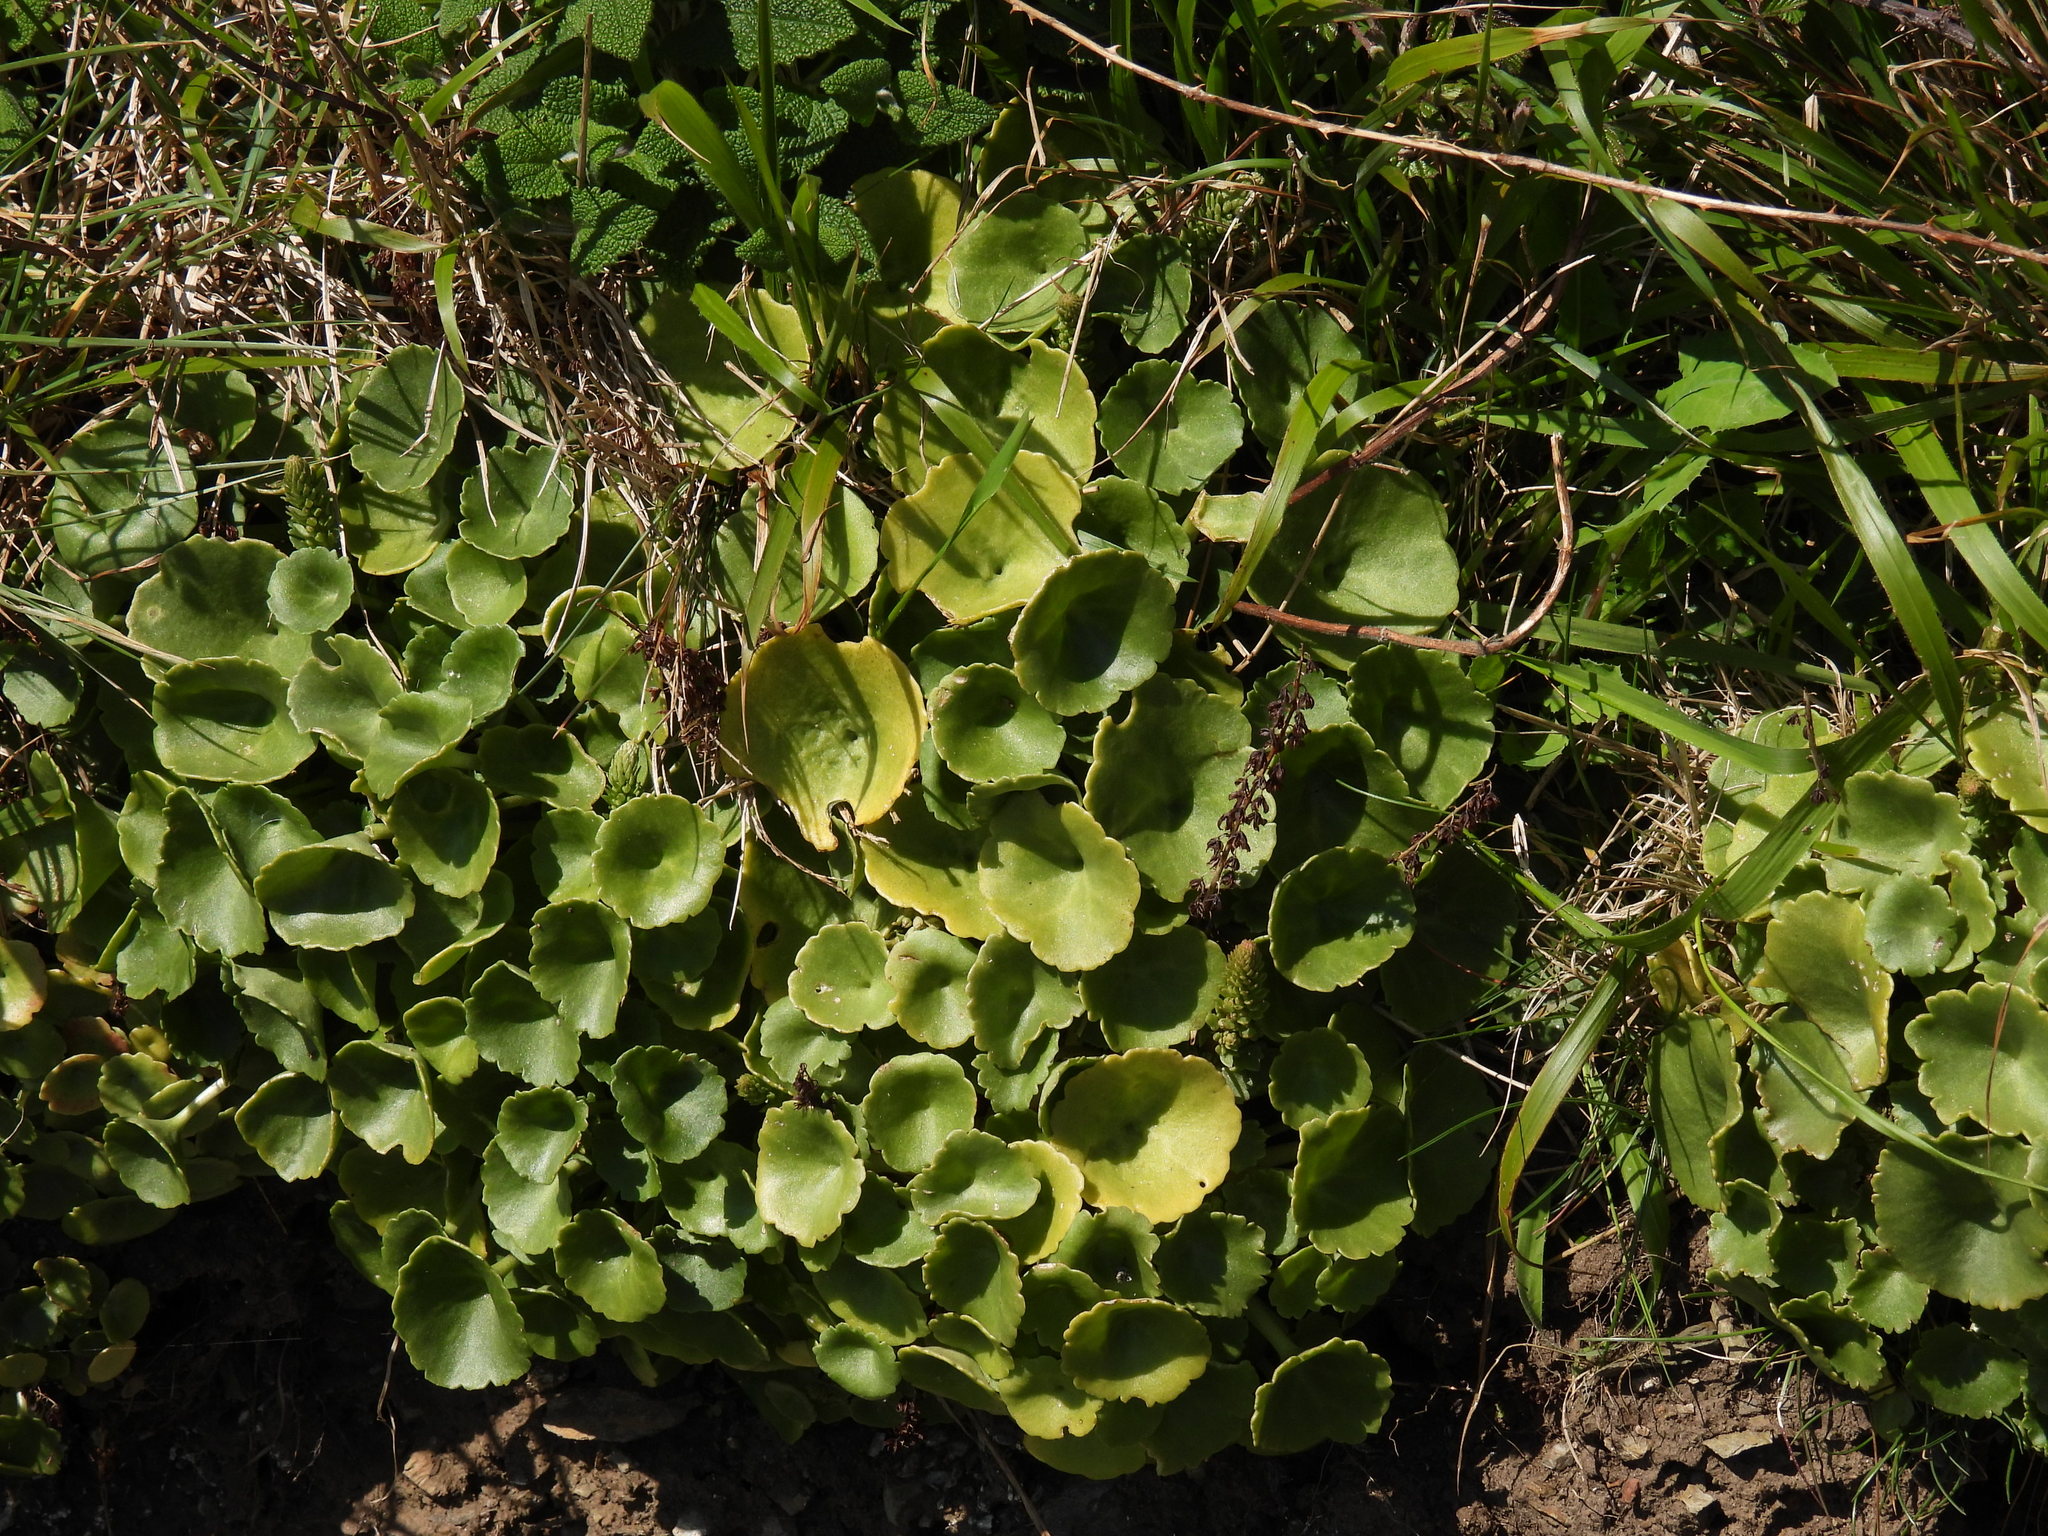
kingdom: Plantae
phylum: Tracheophyta
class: Magnoliopsida
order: Saxifragales
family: Crassulaceae
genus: Umbilicus
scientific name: Umbilicus rupestris
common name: Navelwort
